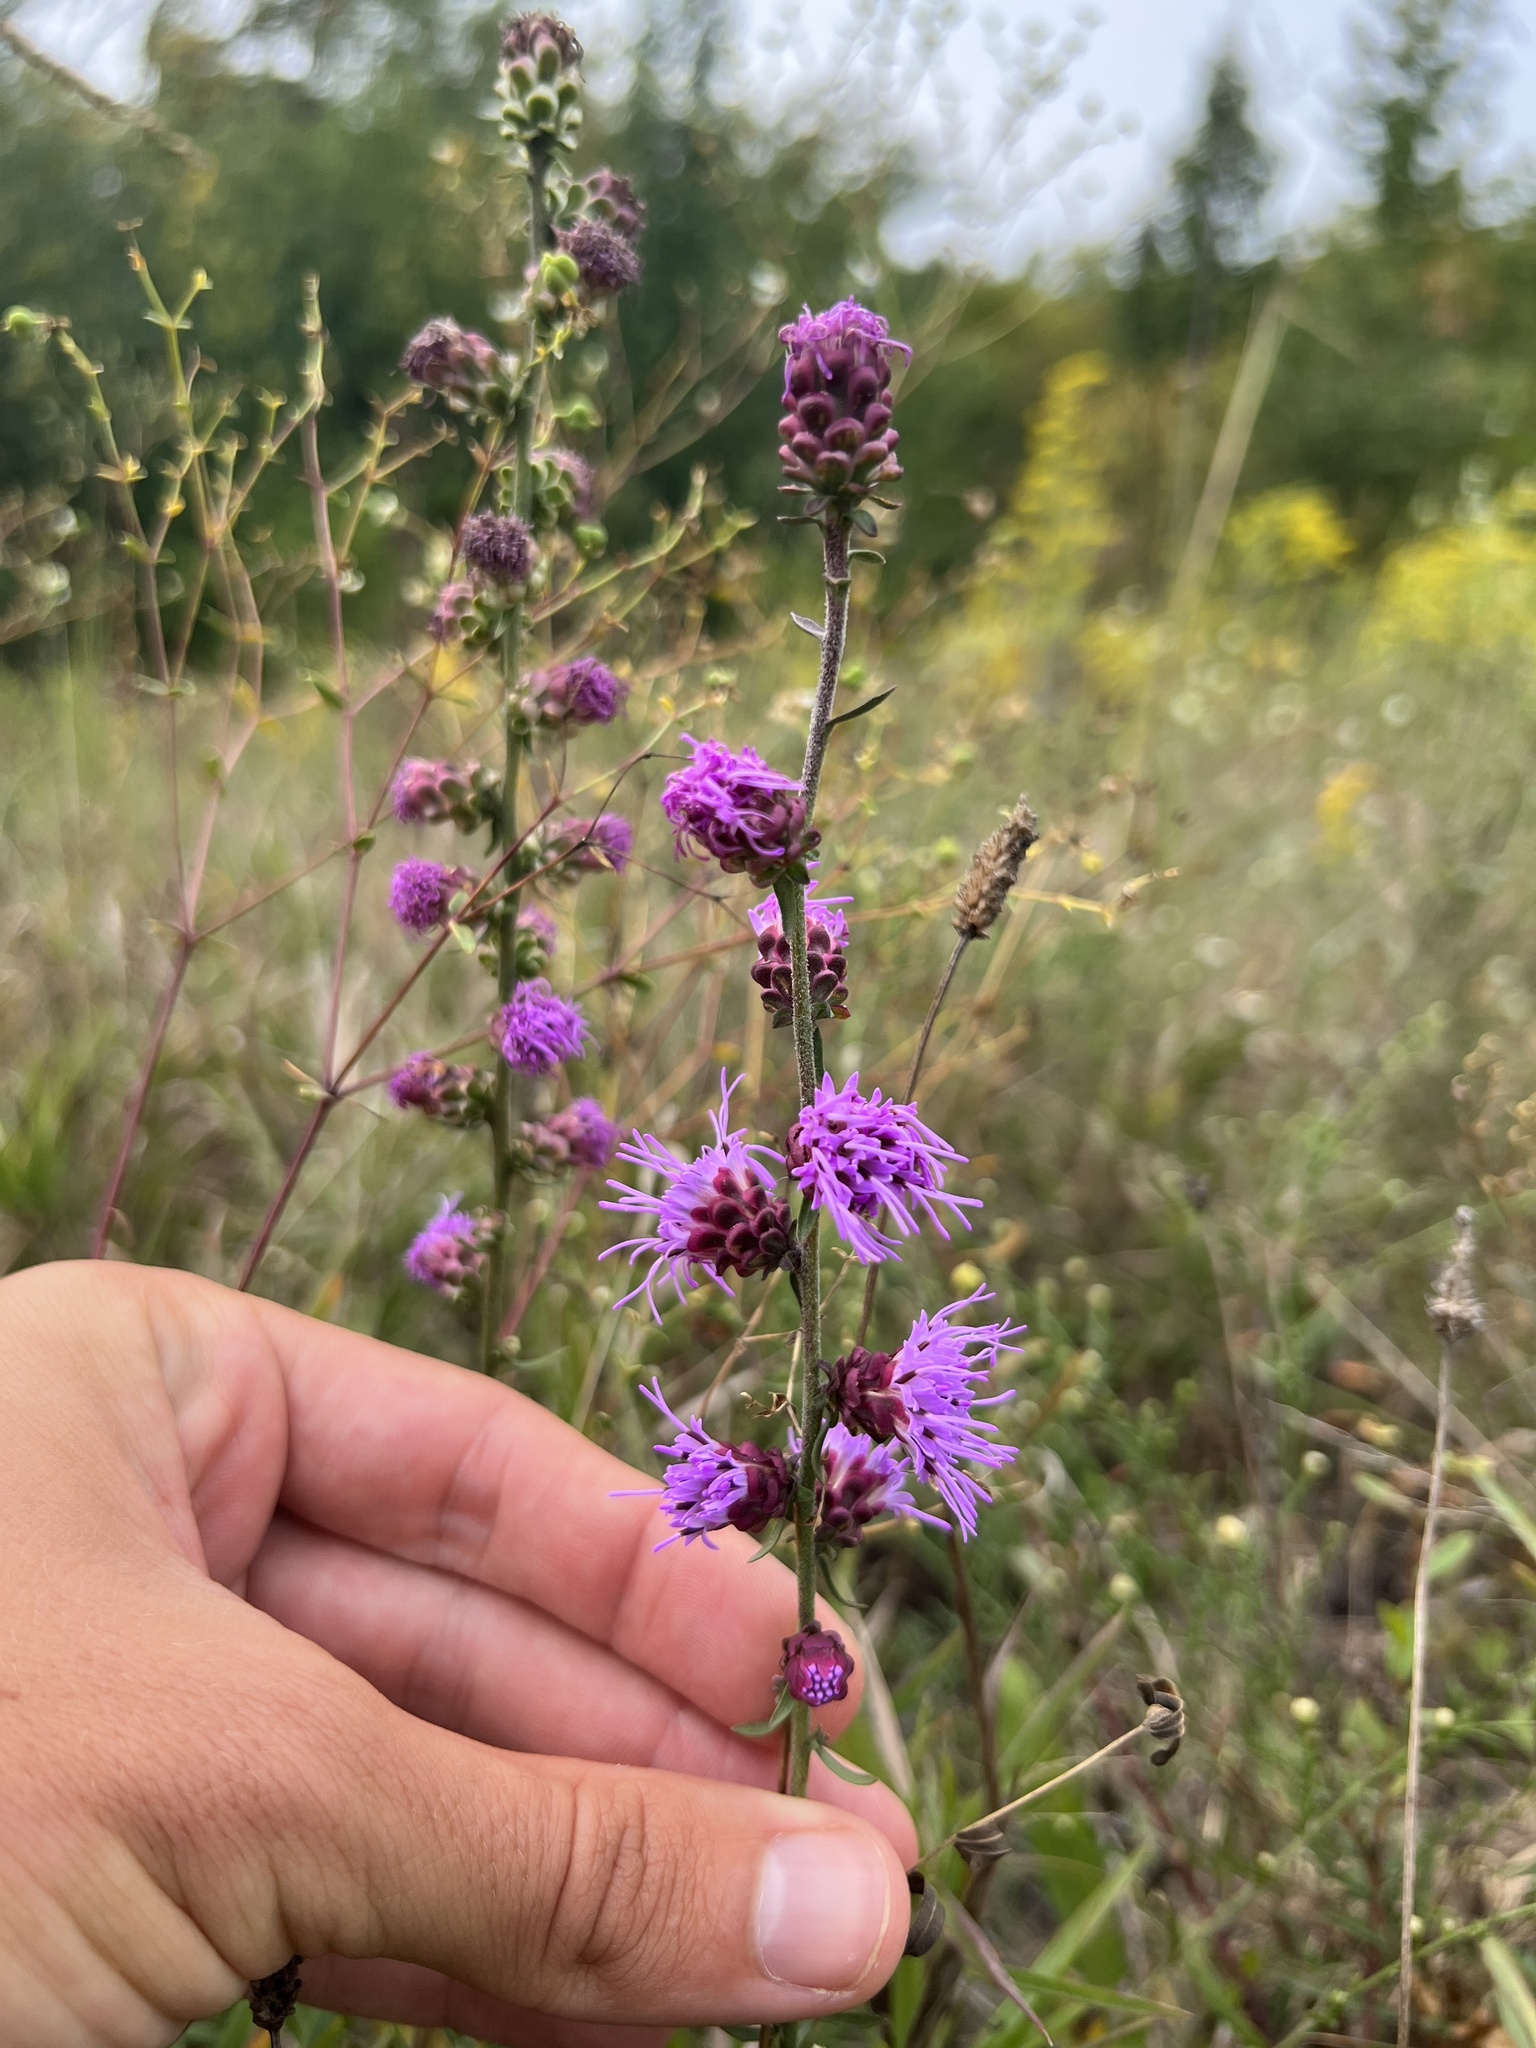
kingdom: Plantae
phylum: Tracheophyta
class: Magnoliopsida
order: Asterales
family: Asteraceae
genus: Liatris
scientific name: Liatris aspera
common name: Lacerate blazing-star
